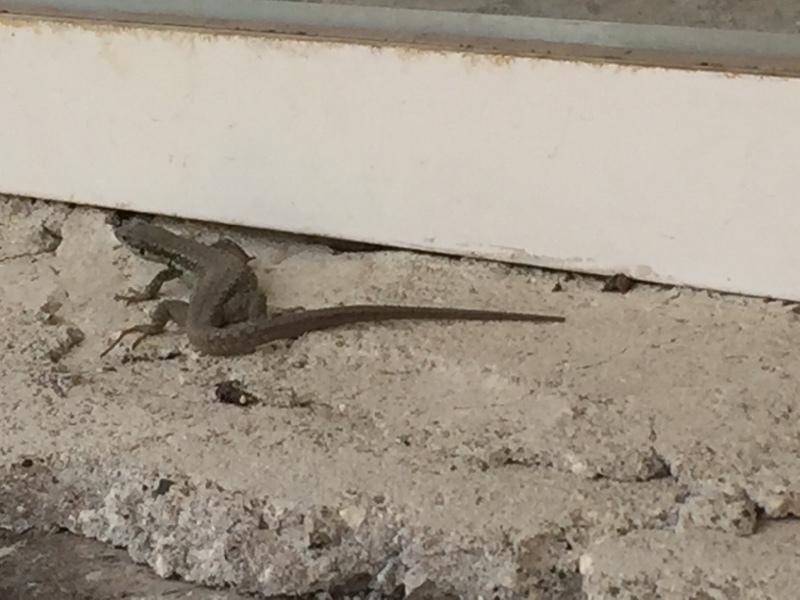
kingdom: Animalia
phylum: Chordata
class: Squamata
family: Lacertidae
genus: Darevskia
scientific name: Darevskia raddei
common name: Radde's lizard
